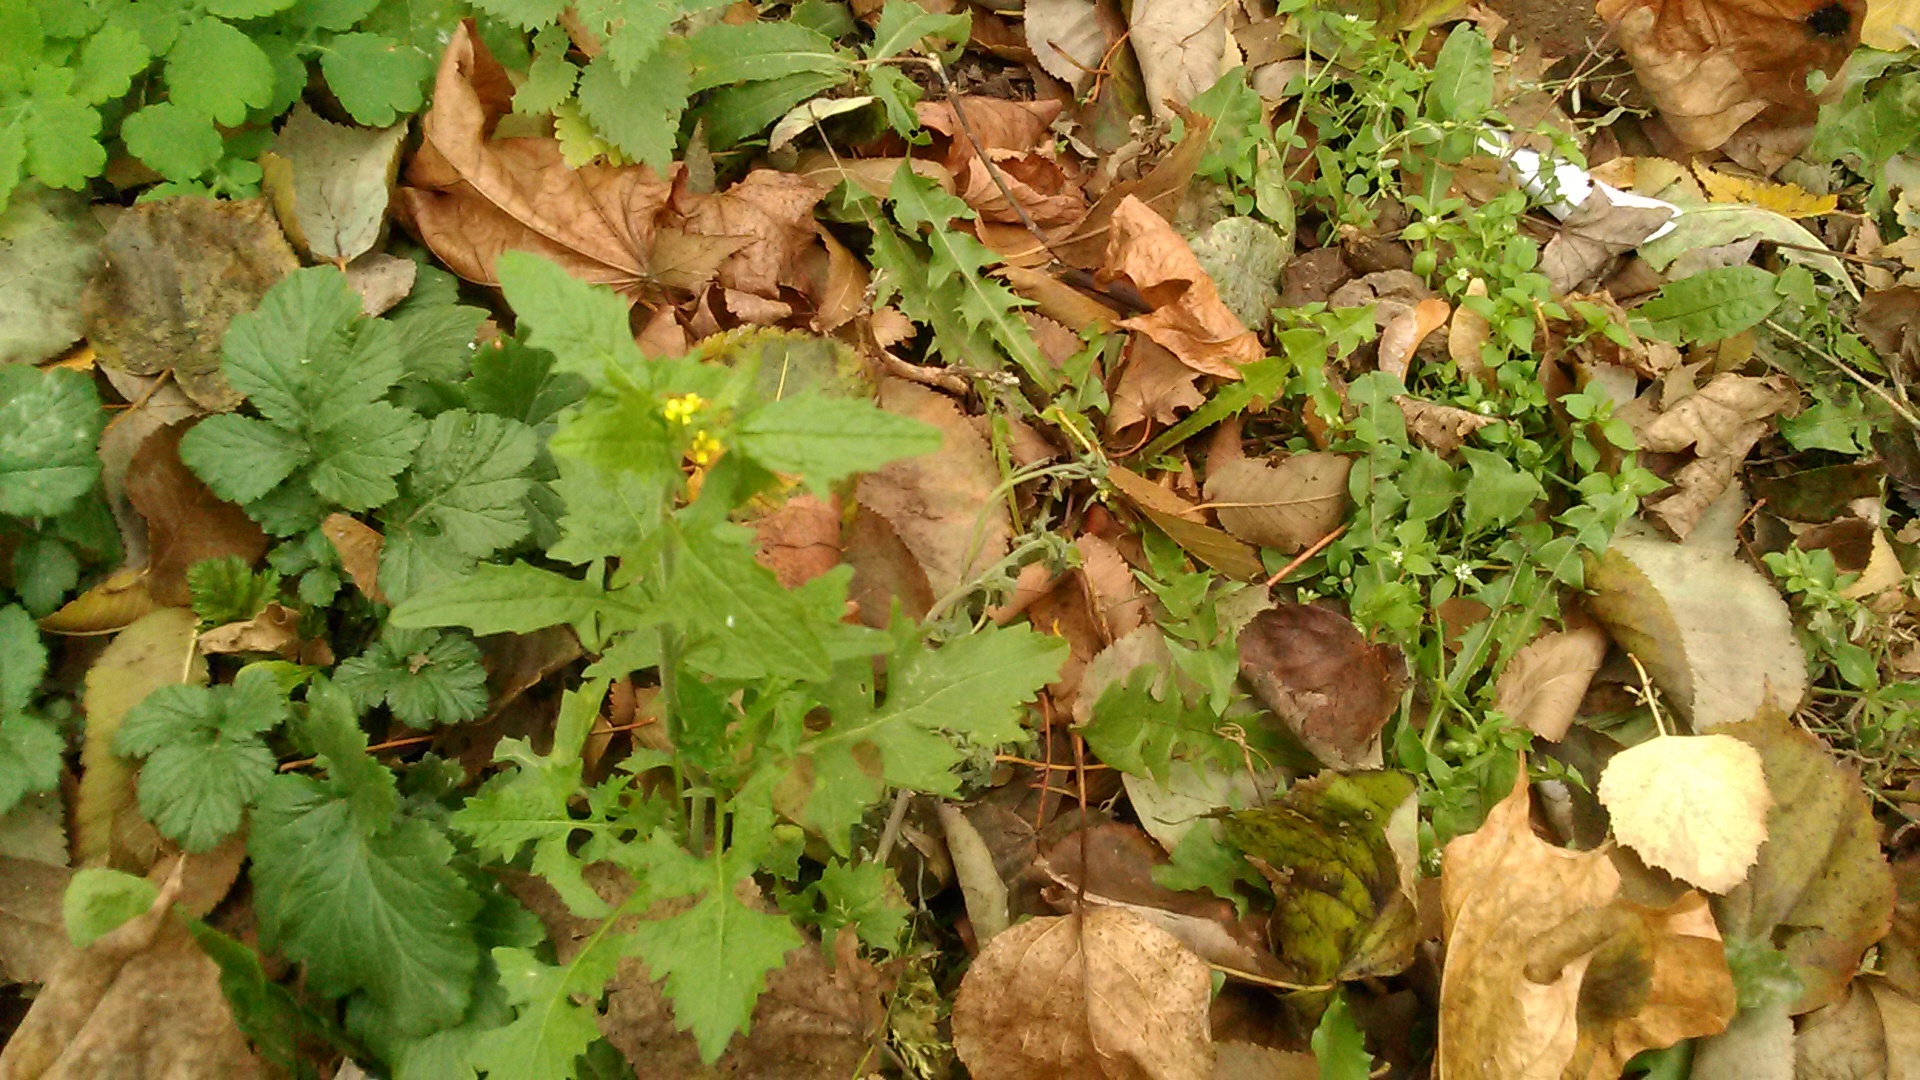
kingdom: Plantae
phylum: Tracheophyta
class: Magnoliopsida
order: Brassicales
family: Brassicaceae
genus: Sisymbrium
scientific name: Sisymbrium officinale
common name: Hedge mustard
